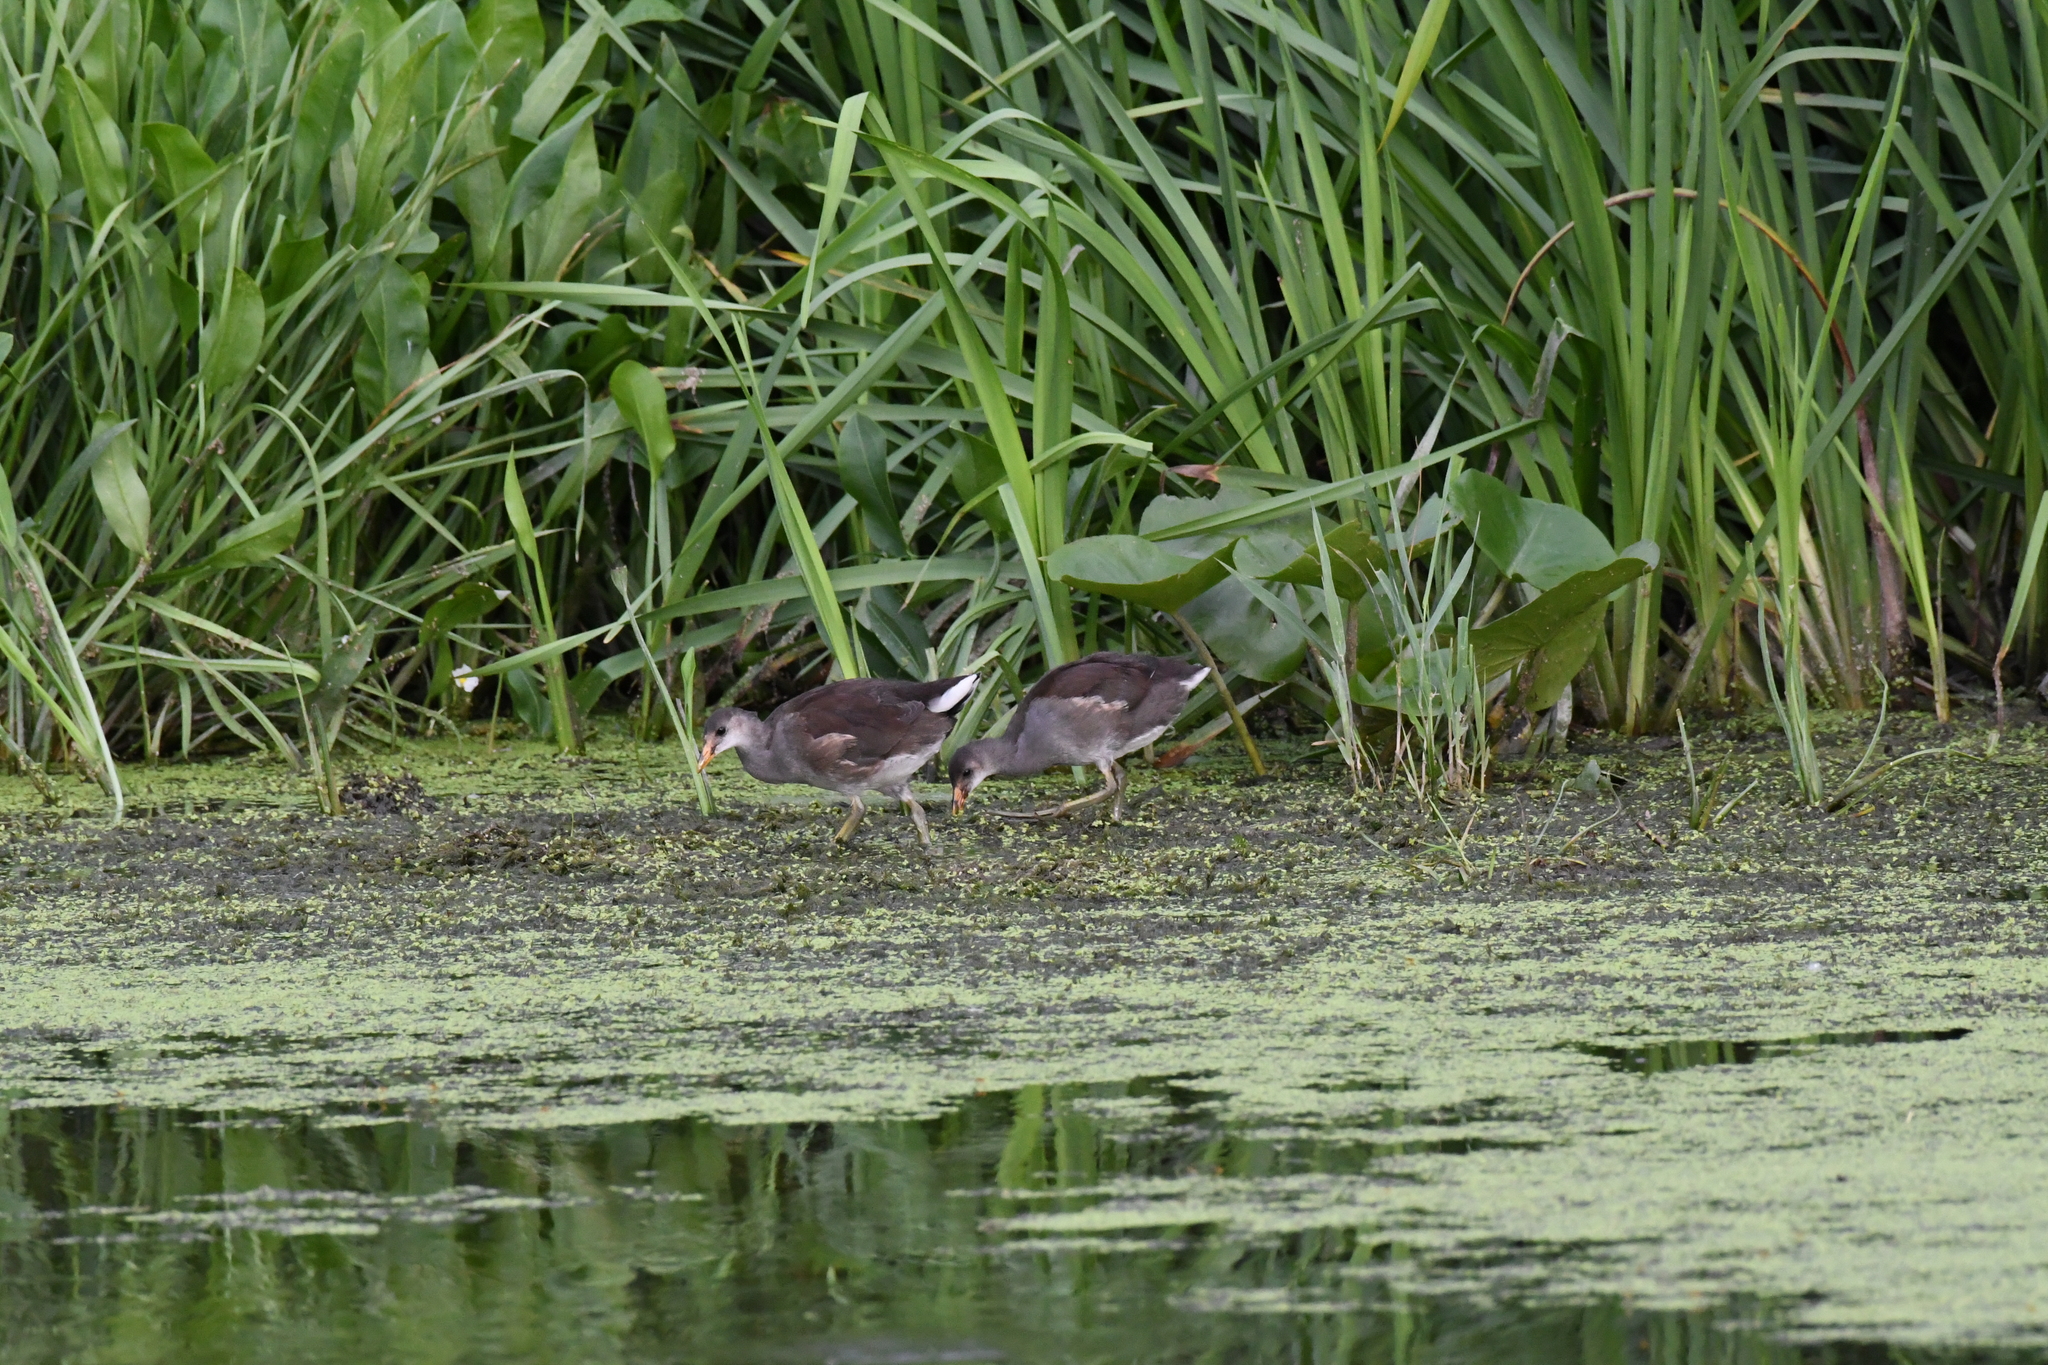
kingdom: Animalia
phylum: Chordata
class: Aves
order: Gruiformes
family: Rallidae
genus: Gallinula
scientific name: Gallinula chloropus
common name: Common moorhen
